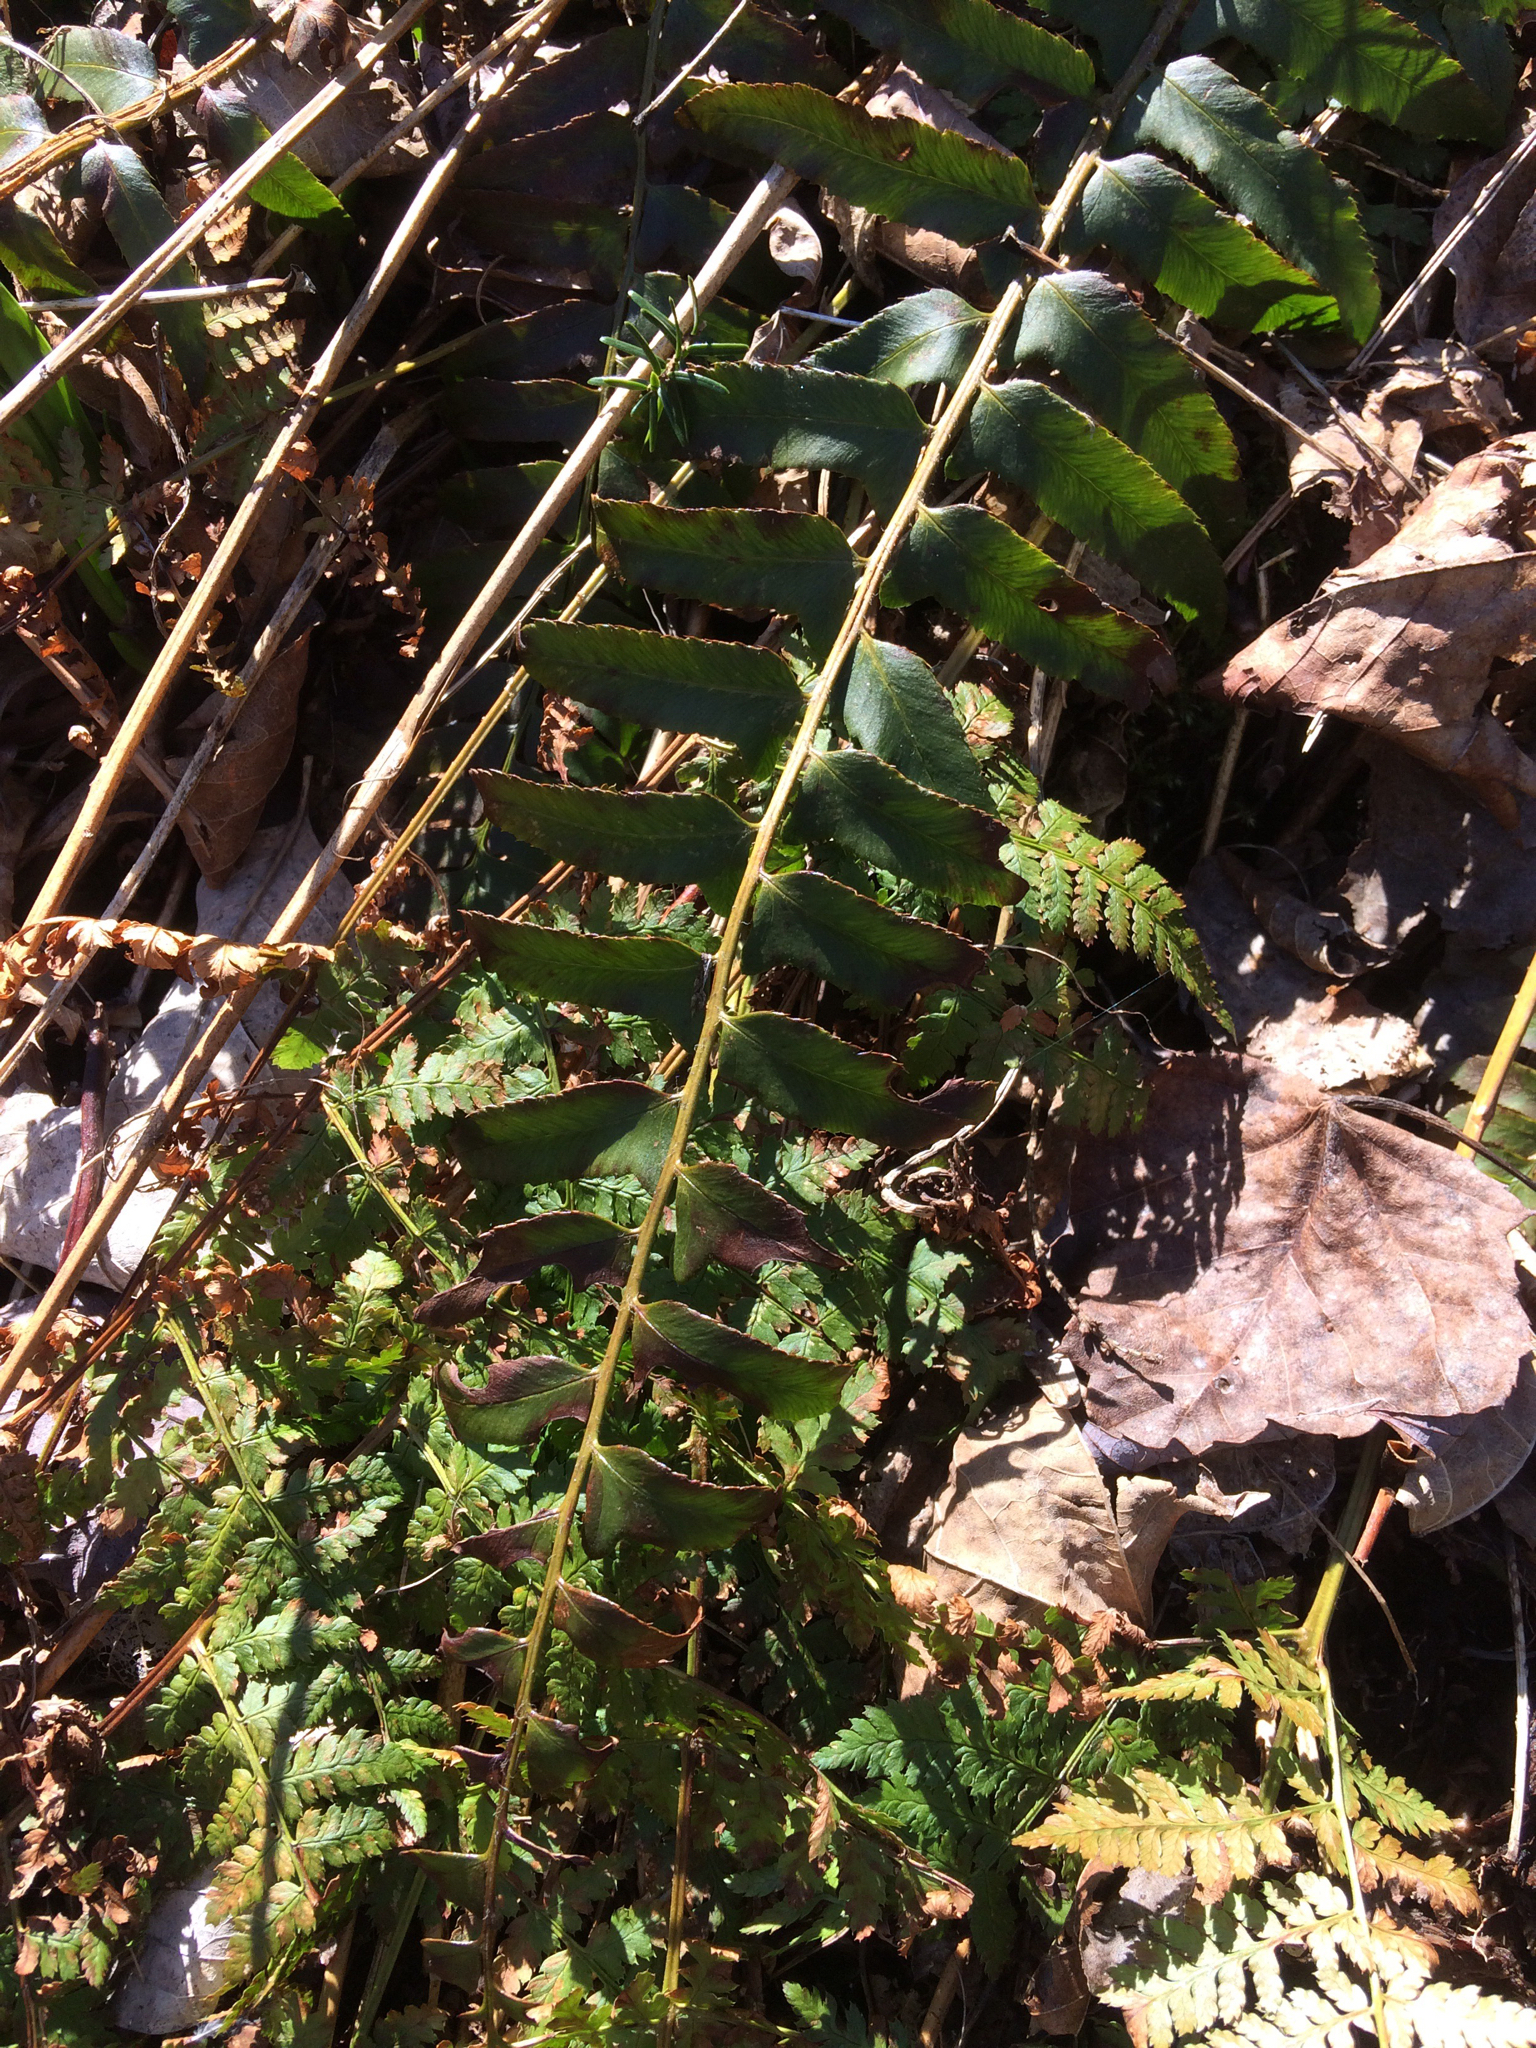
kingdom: Plantae
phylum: Tracheophyta
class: Polypodiopsida
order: Polypodiales
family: Dryopteridaceae
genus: Polystichum
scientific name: Polystichum acrostichoides
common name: Christmas fern
